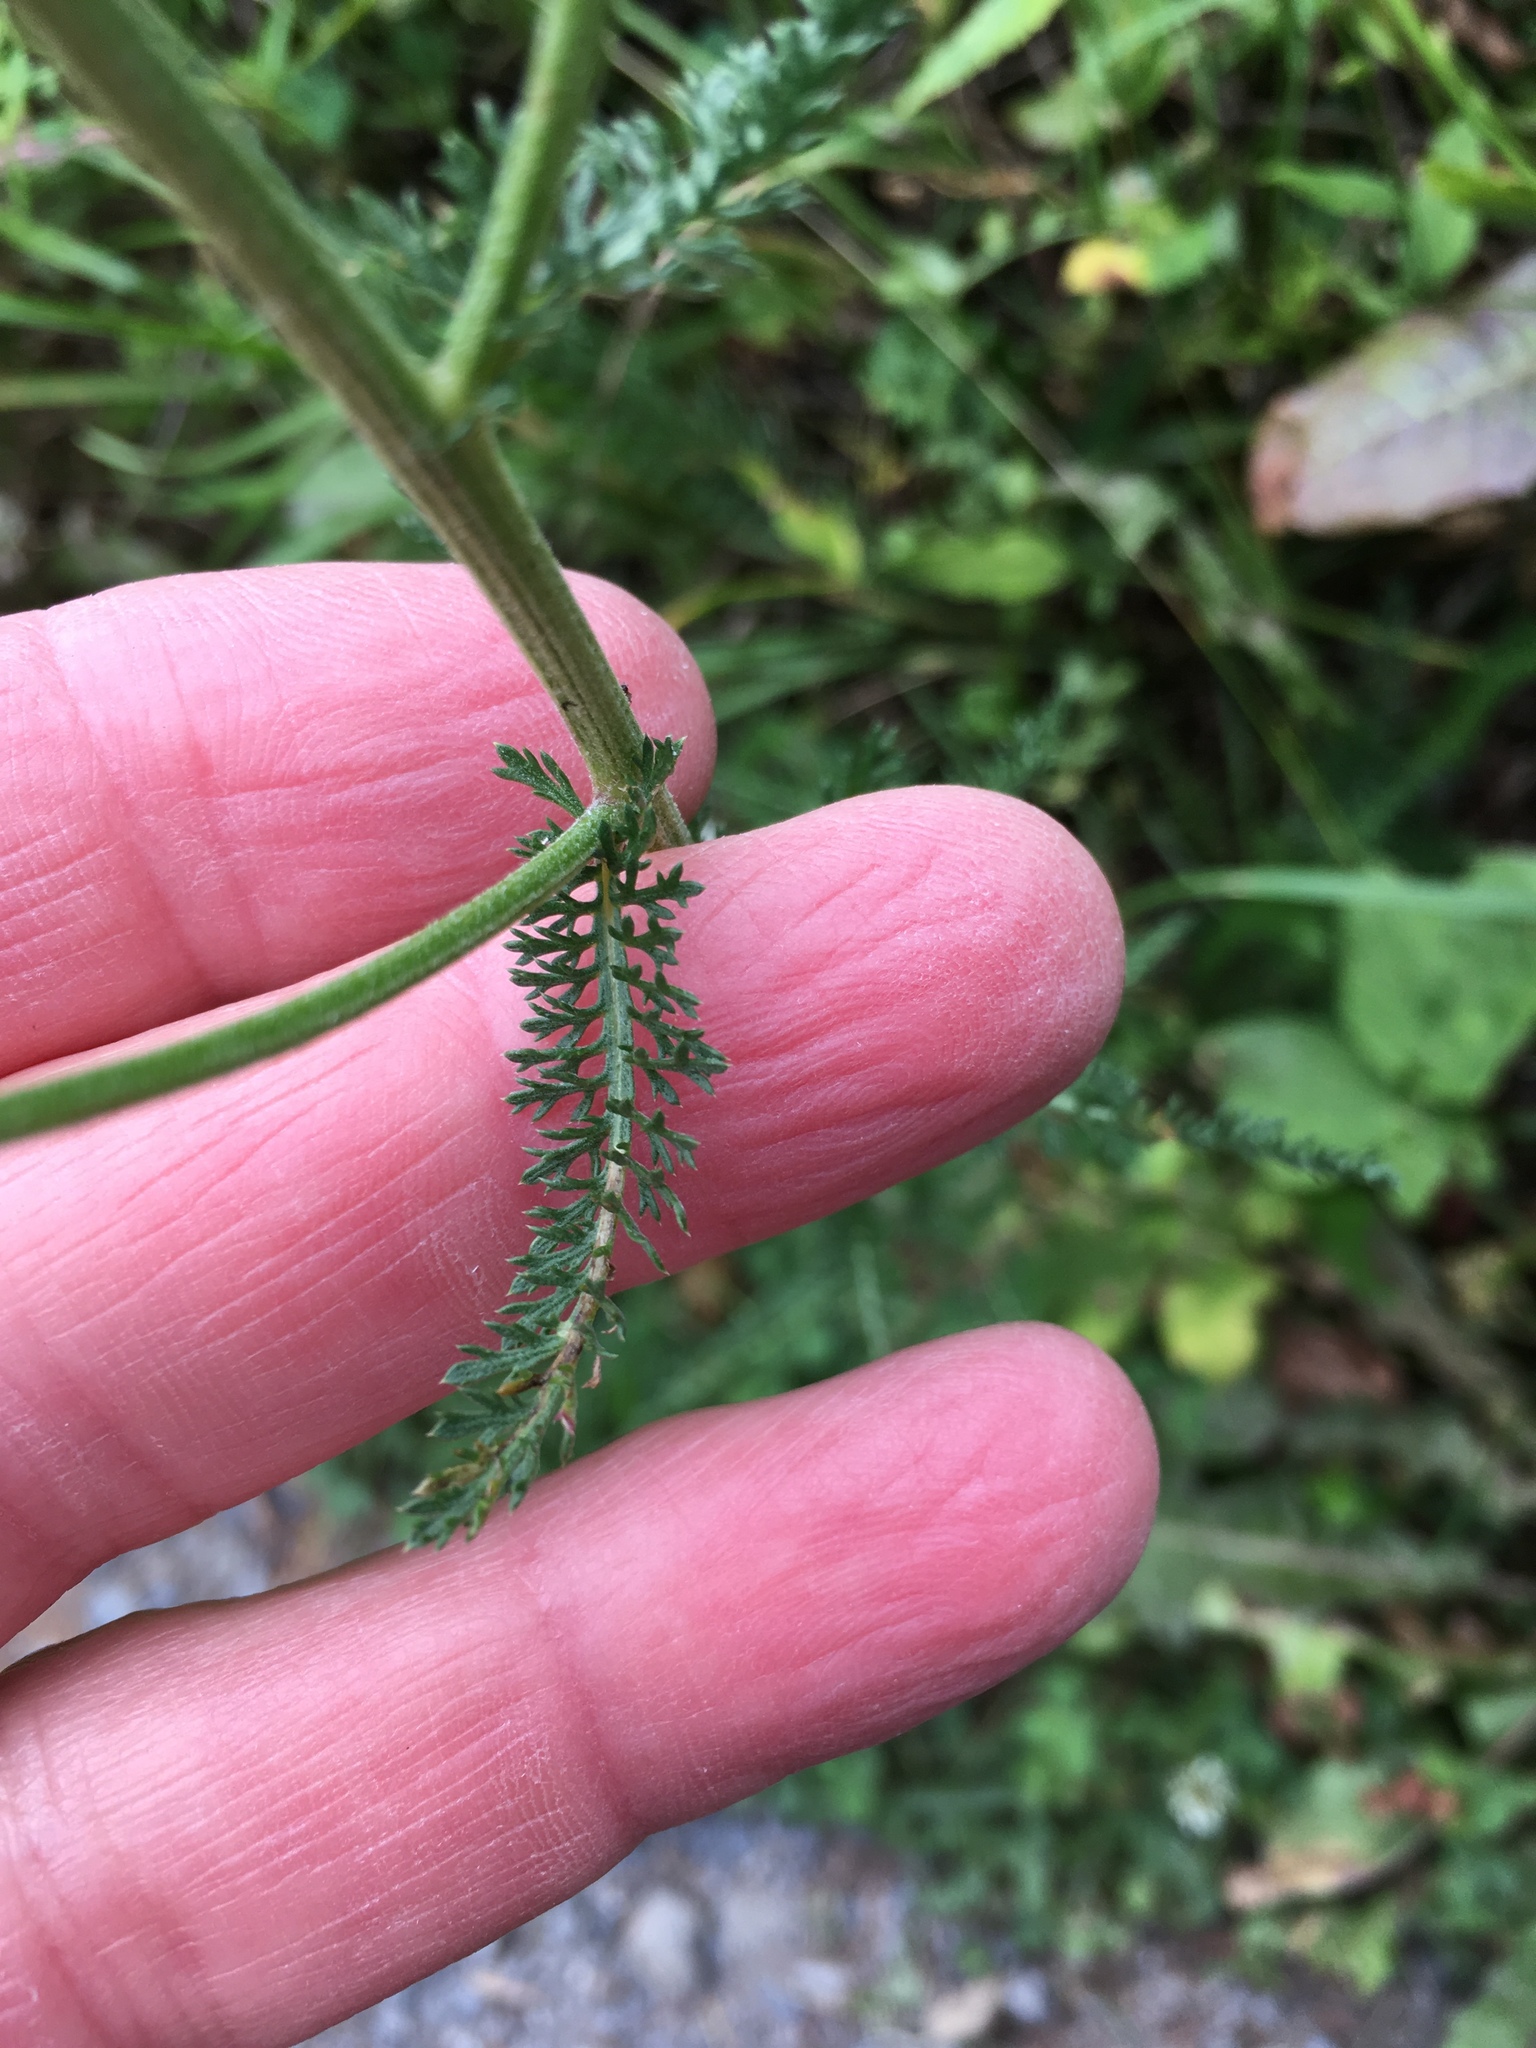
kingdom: Plantae
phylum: Tracheophyta
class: Magnoliopsida
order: Asterales
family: Asteraceae
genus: Achillea
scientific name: Achillea millefolium
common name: Yarrow
